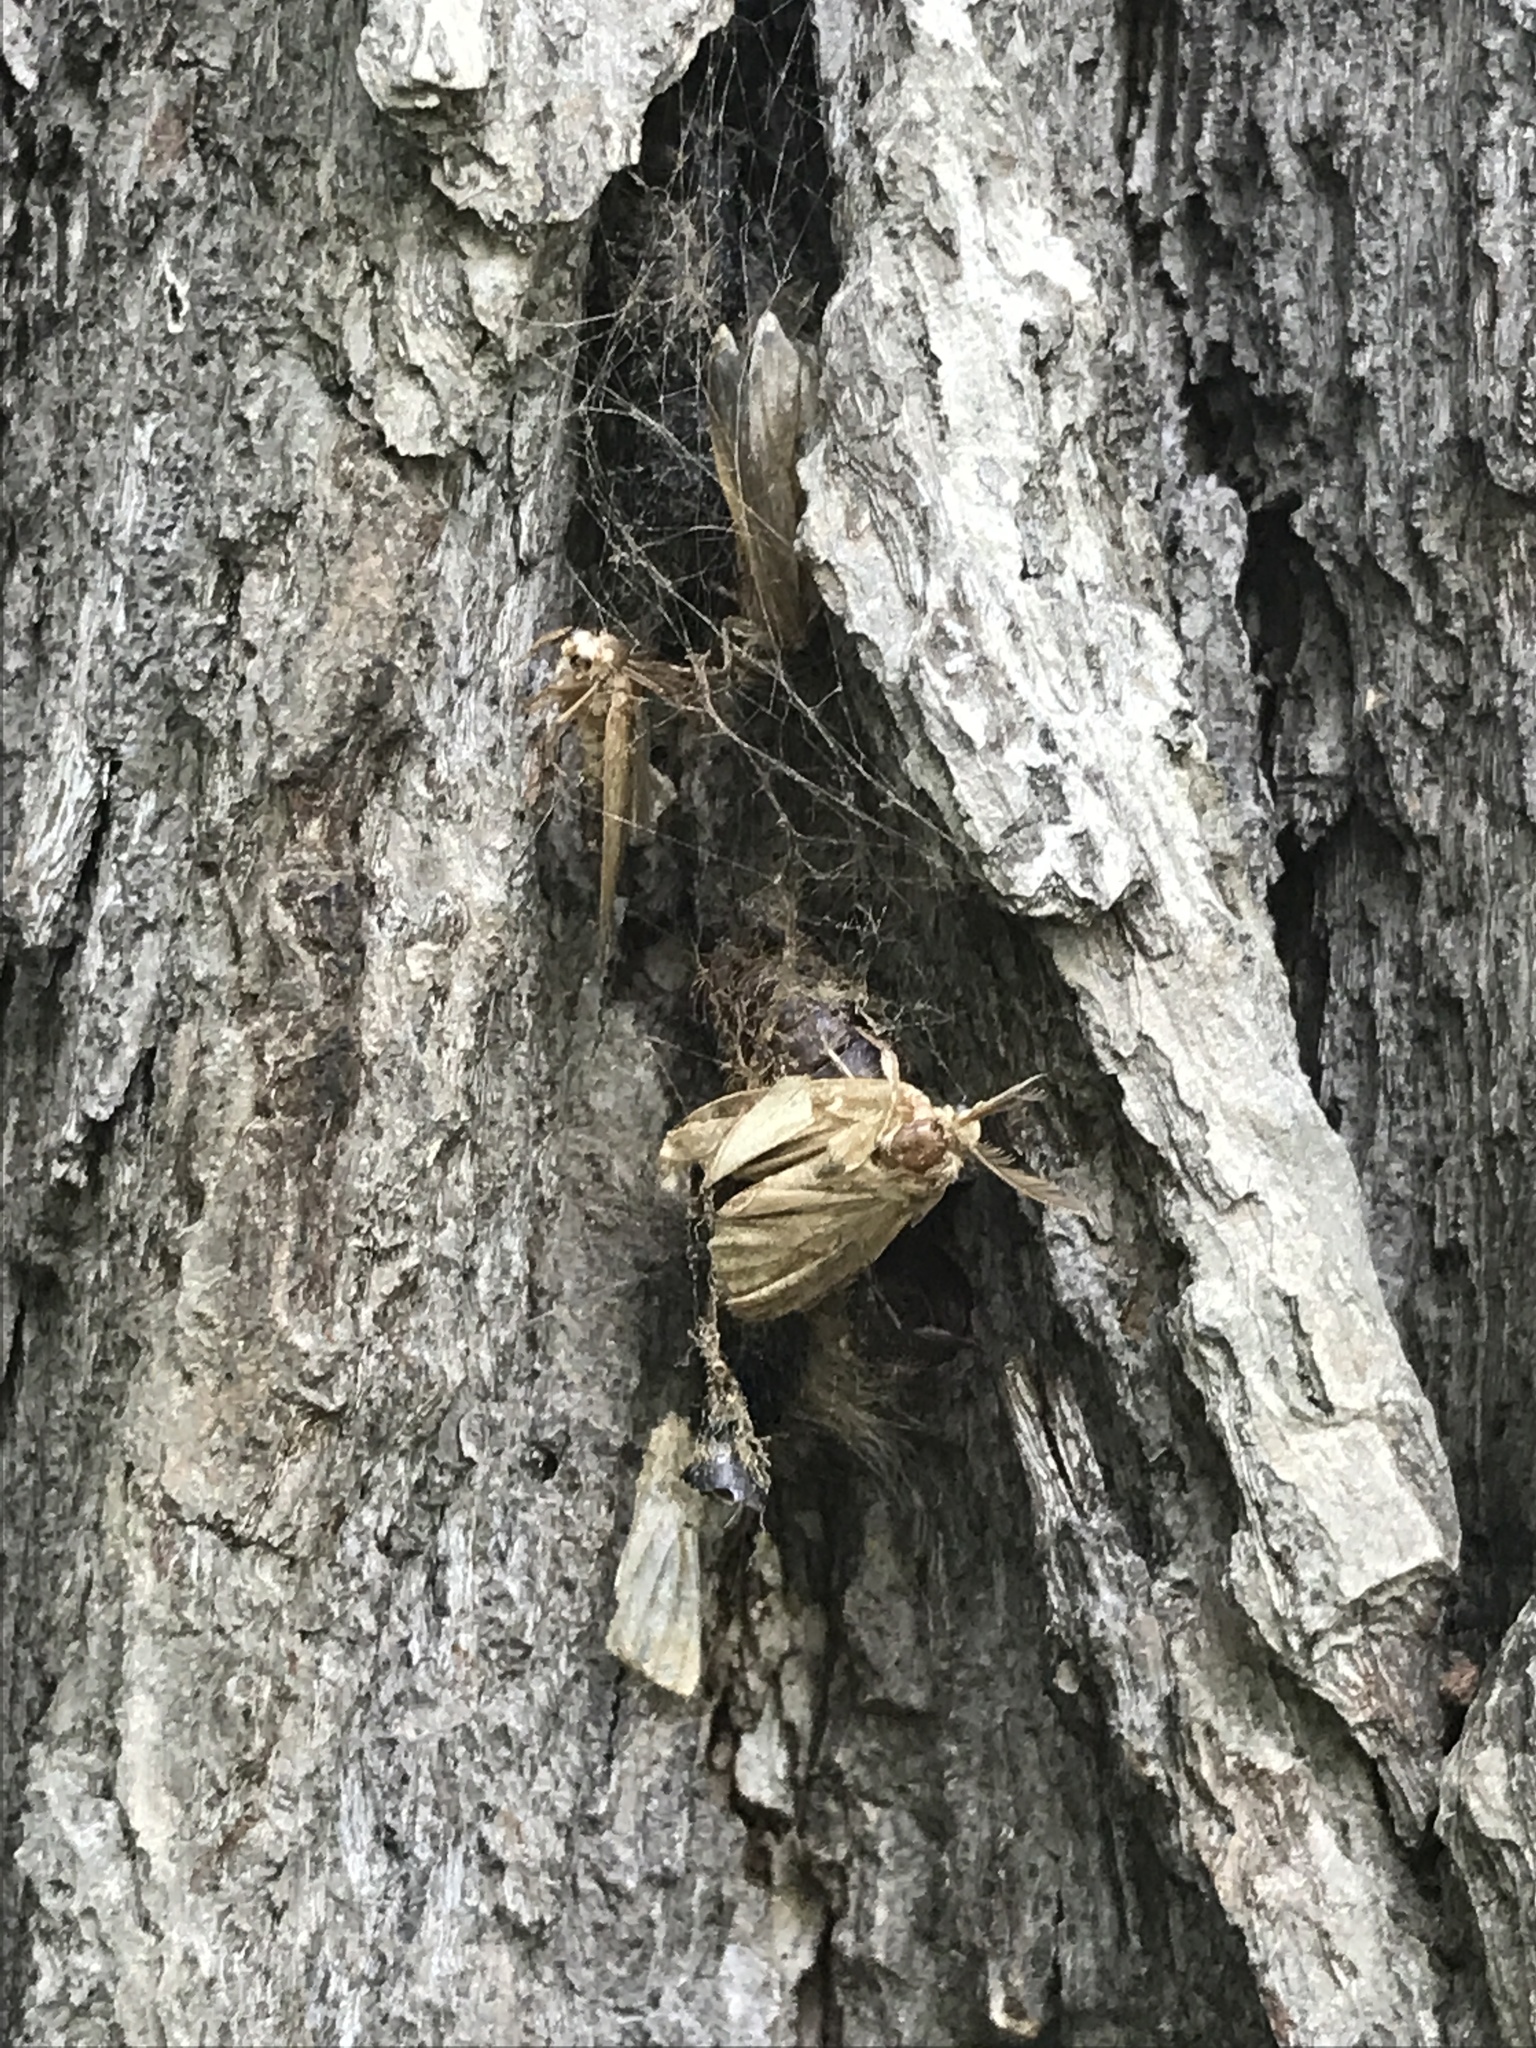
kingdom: Animalia
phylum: Arthropoda
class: Insecta
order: Lepidoptera
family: Erebidae
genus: Lymantria
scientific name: Lymantria dispar
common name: Gypsy moth
